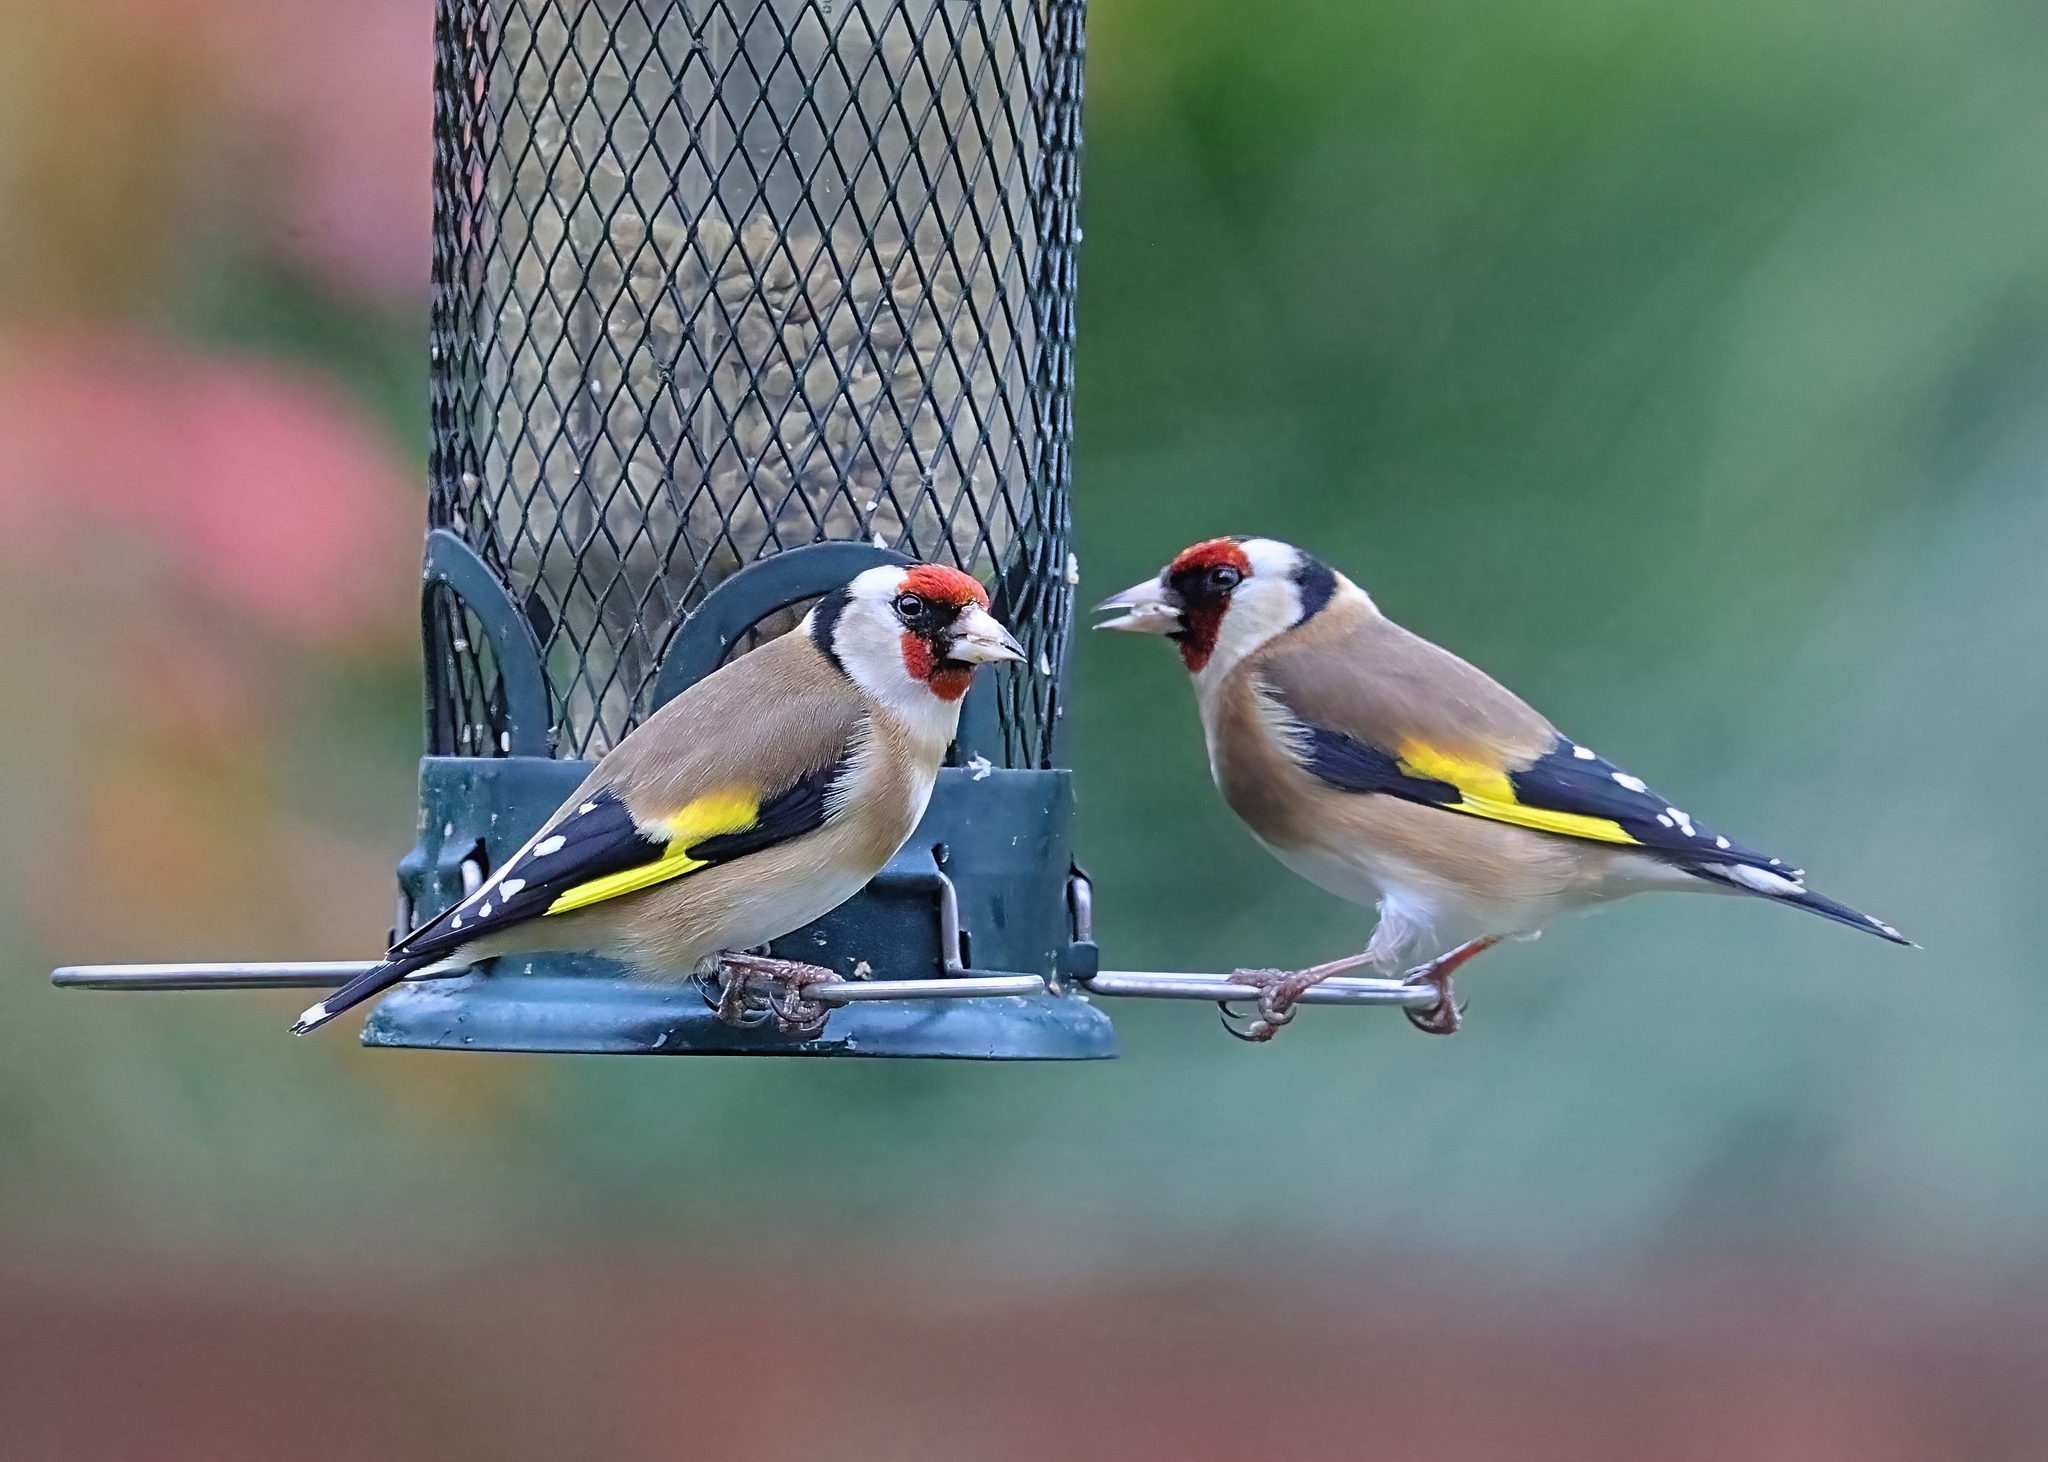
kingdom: Animalia
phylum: Chordata
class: Aves
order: Passeriformes
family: Fringillidae
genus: Carduelis
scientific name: Carduelis carduelis
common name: European goldfinch
